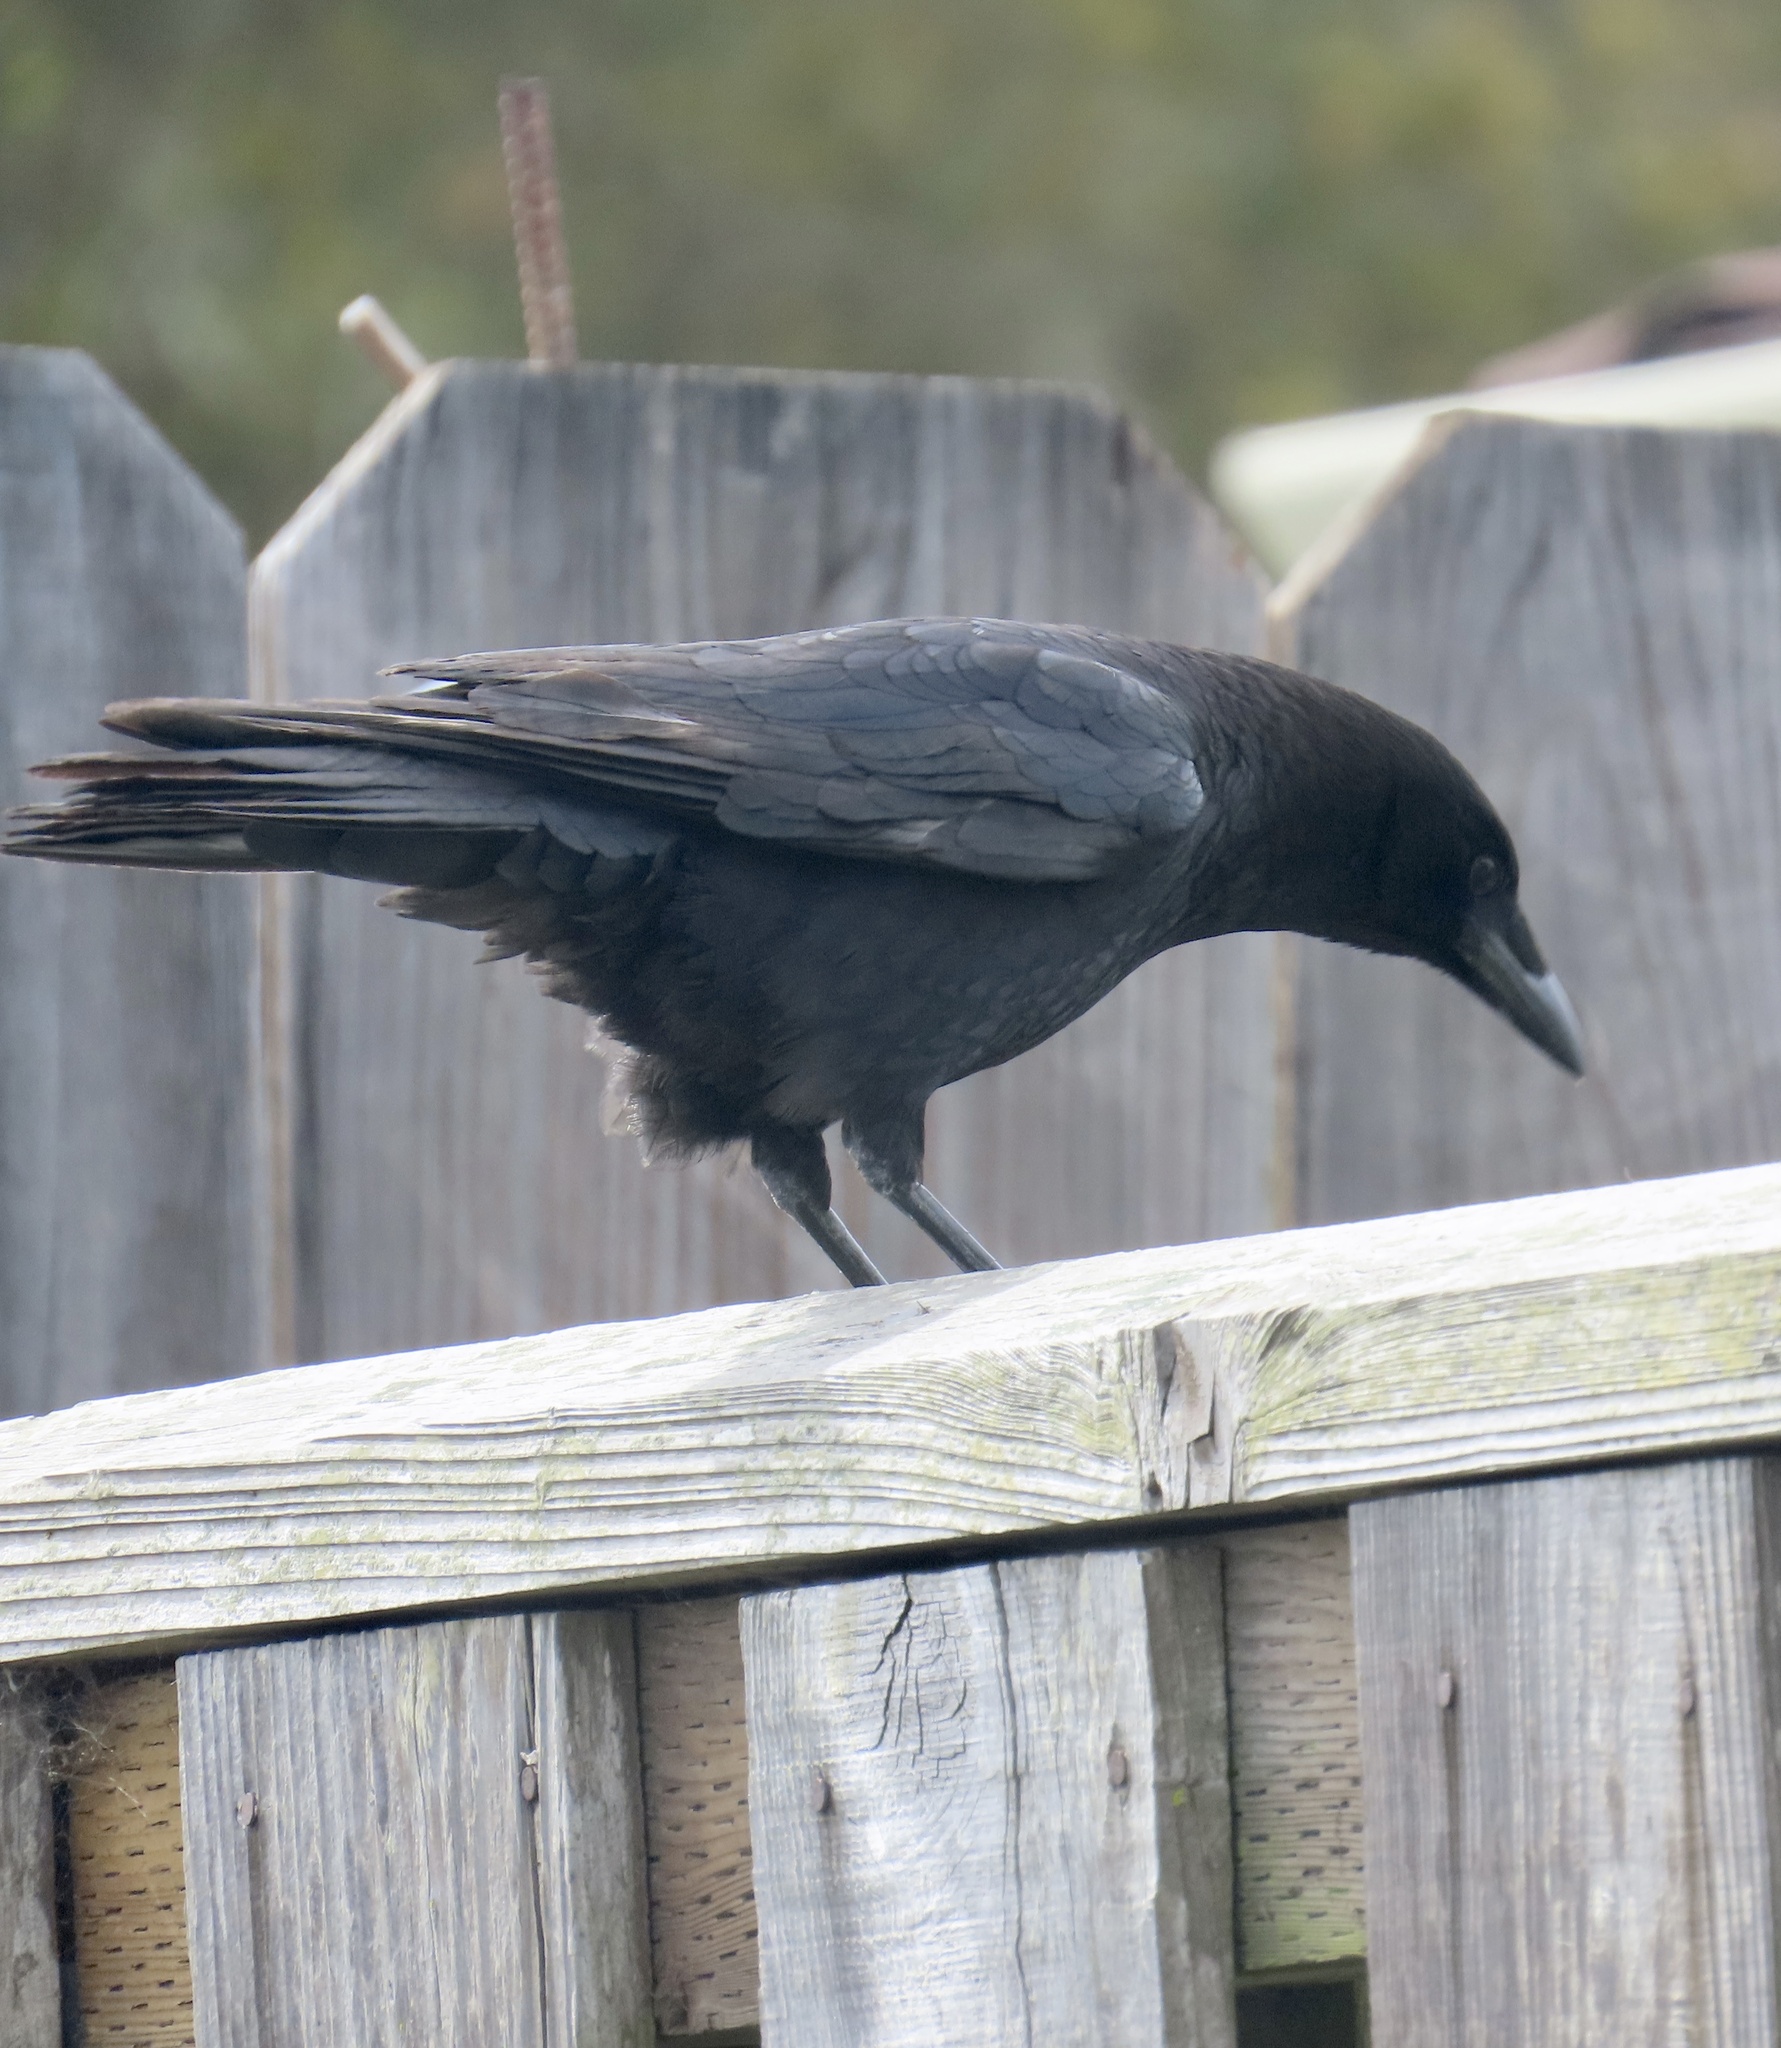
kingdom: Animalia
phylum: Chordata
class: Aves
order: Passeriformes
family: Corvidae
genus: Corvus
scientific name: Corvus brachyrhynchos
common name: American crow
